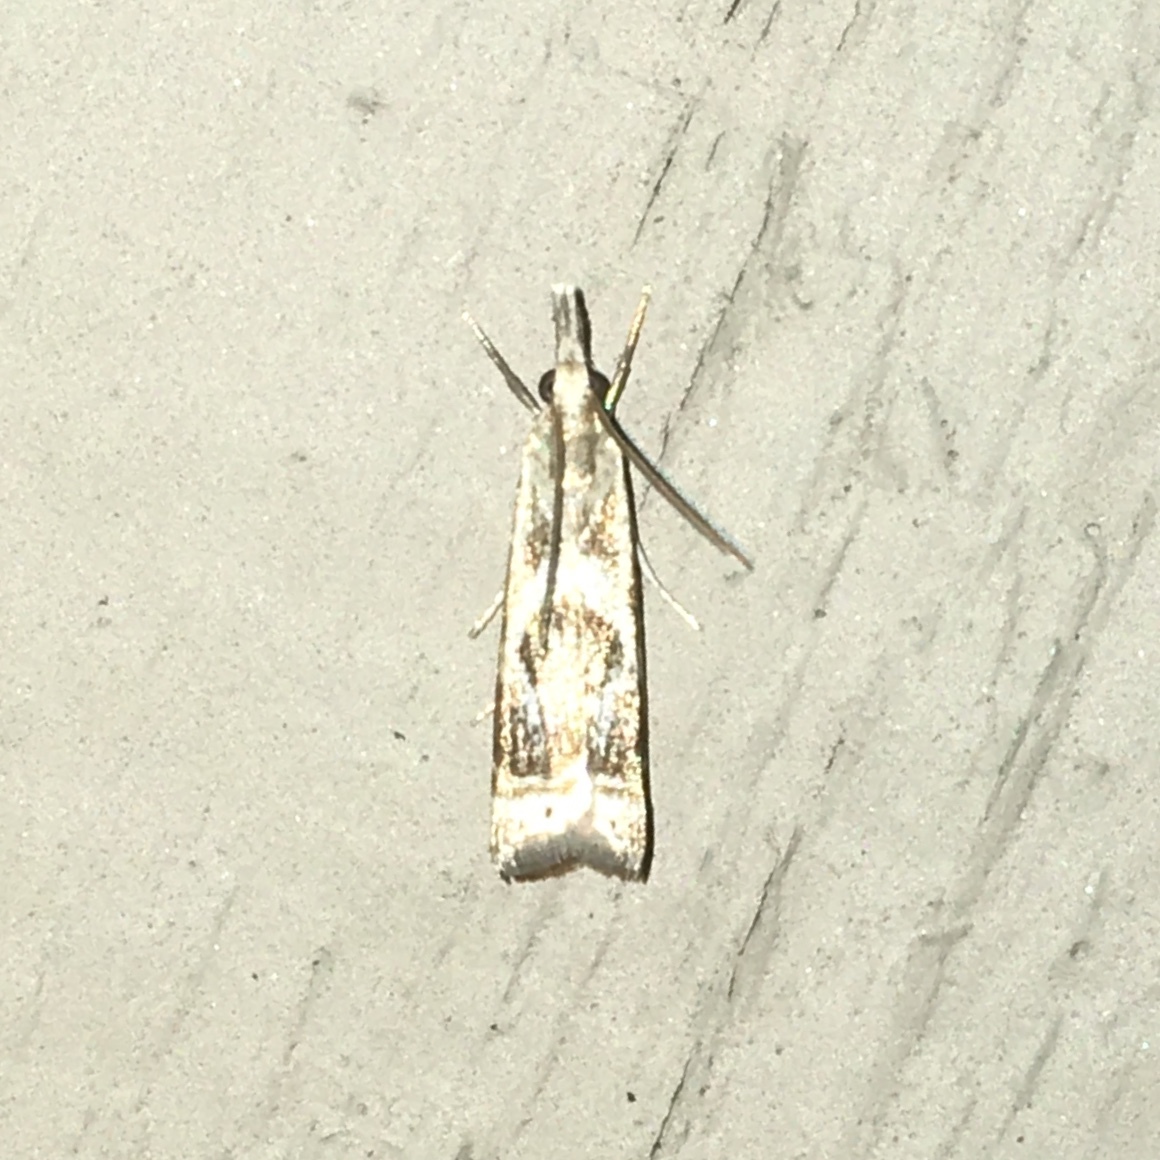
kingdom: Animalia
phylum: Arthropoda
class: Insecta
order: Lepidoptera
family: Crambidae
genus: Microcrambus
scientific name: Microcrambus elegans
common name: Elegant grass-veneer
